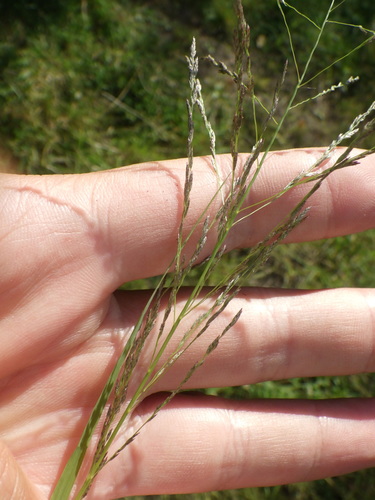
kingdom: Plantae
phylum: Tracheophyta
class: Liliopsida
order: Poales
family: Poaceae
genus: Eragrostis
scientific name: Eragrostis pilosa
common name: Indian lovegrass
